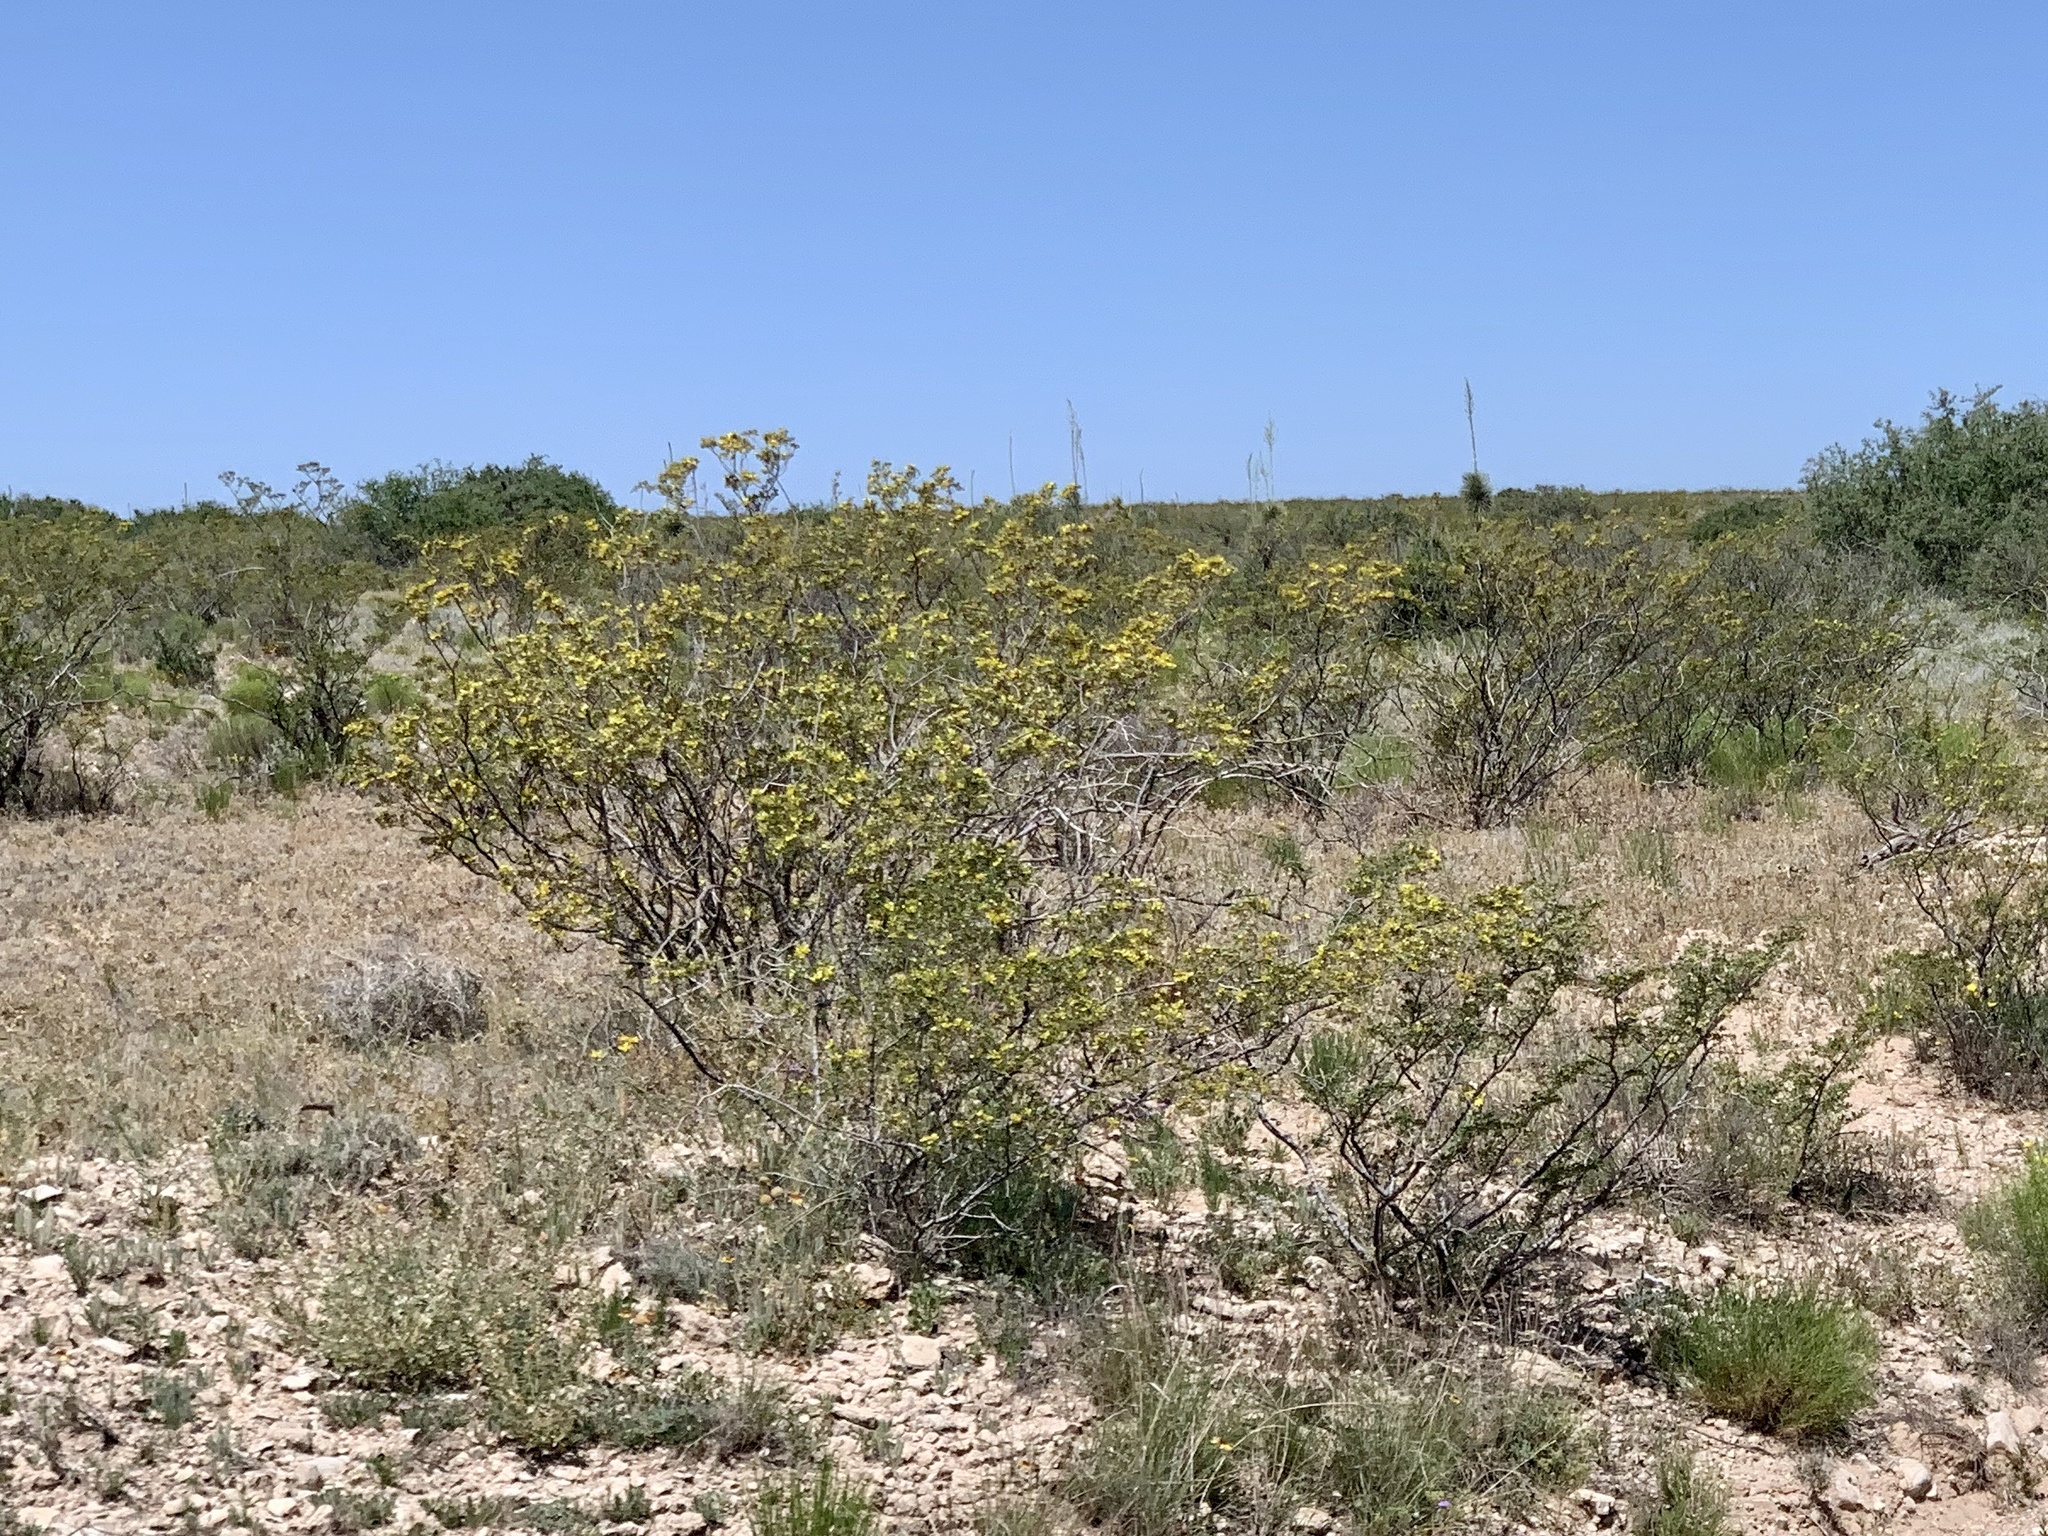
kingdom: Plantae
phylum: Tracheophyta
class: Magnoliopsida
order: Zygophyllales
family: Zygophyllaceae
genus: Larrea
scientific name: Larrea tridentata
